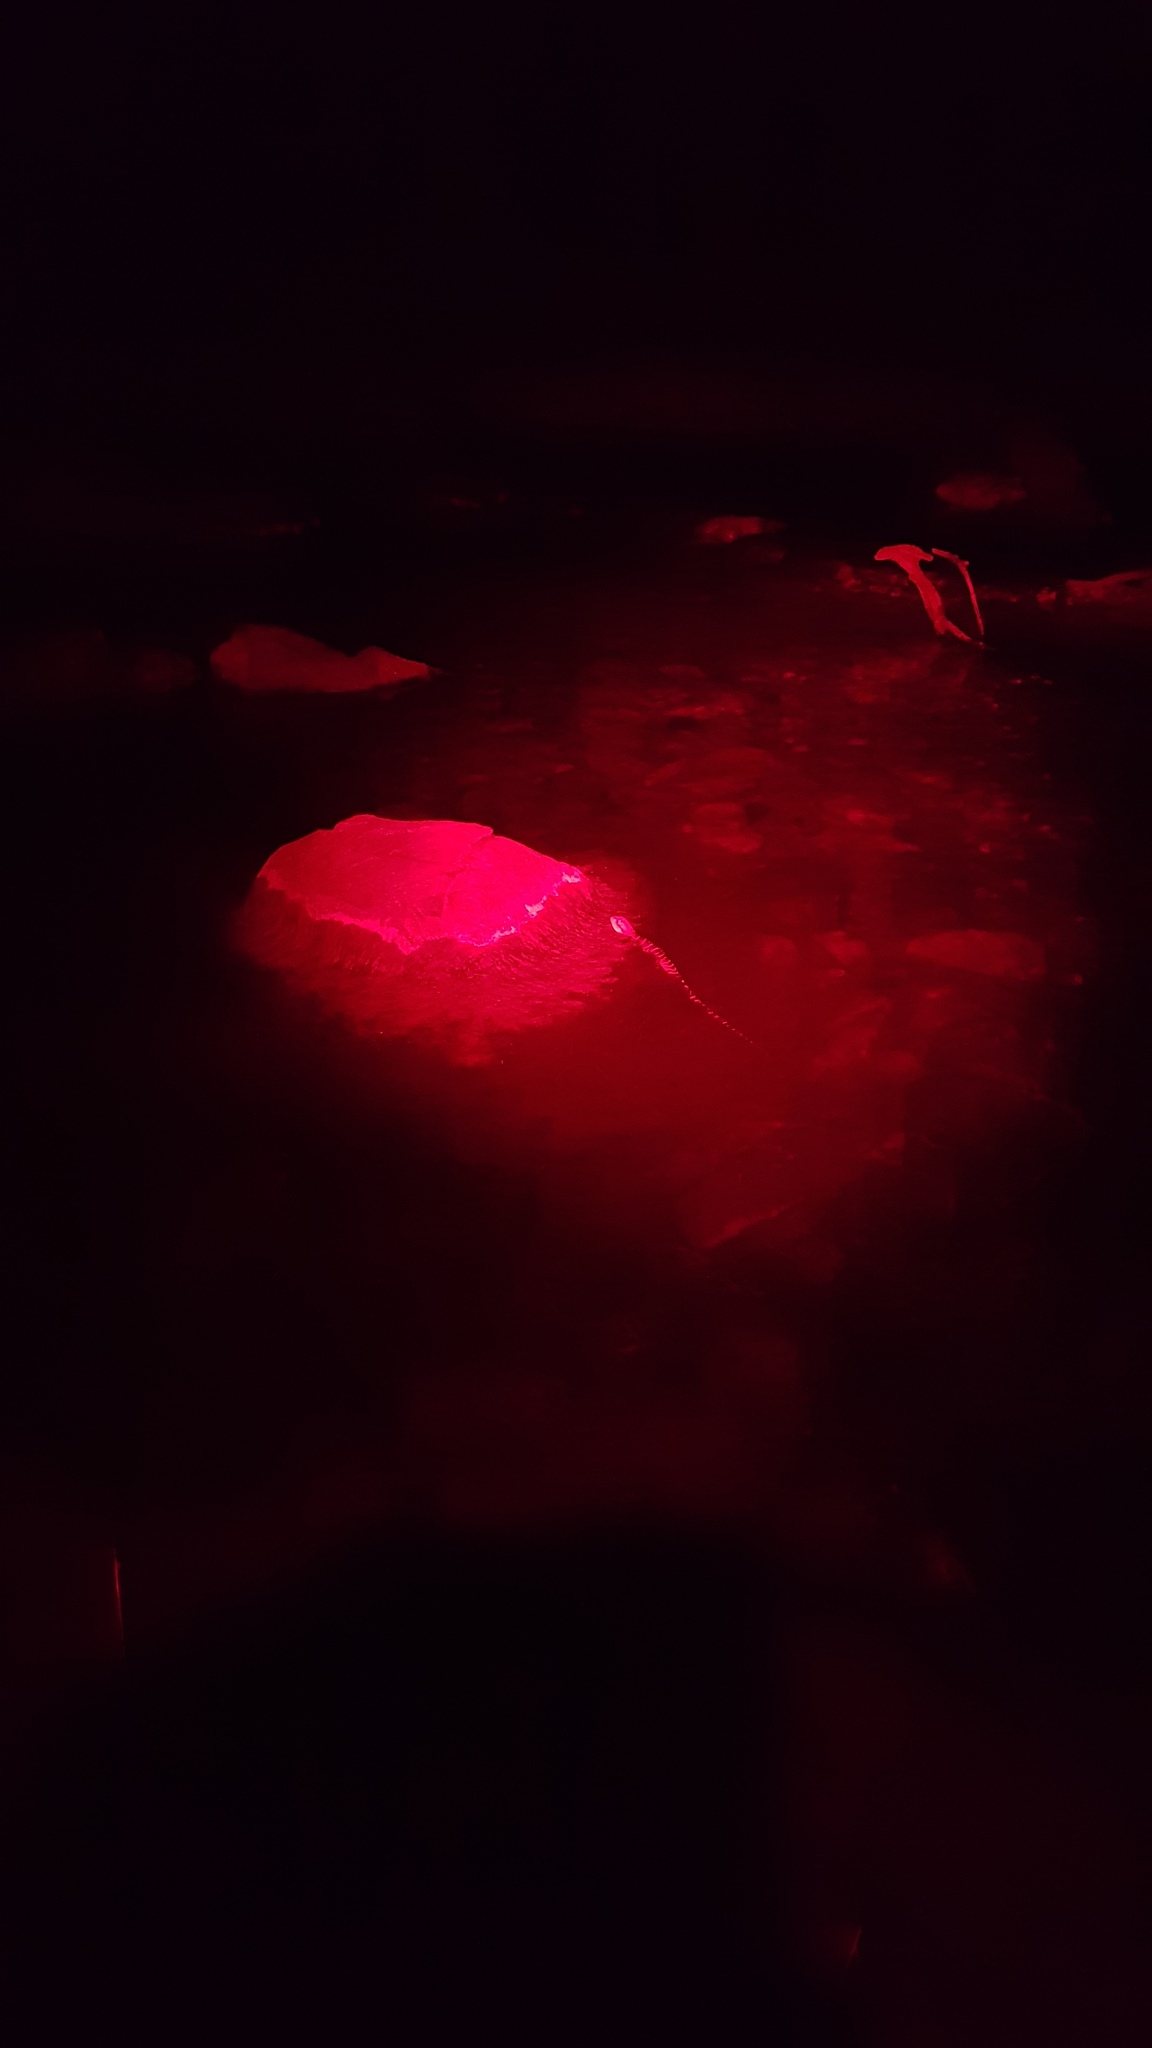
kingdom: Animalia
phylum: Chordata
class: Squamata
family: Agamidae
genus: Intellagama
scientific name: Intellagama lesueurii
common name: Eastern water dragon
